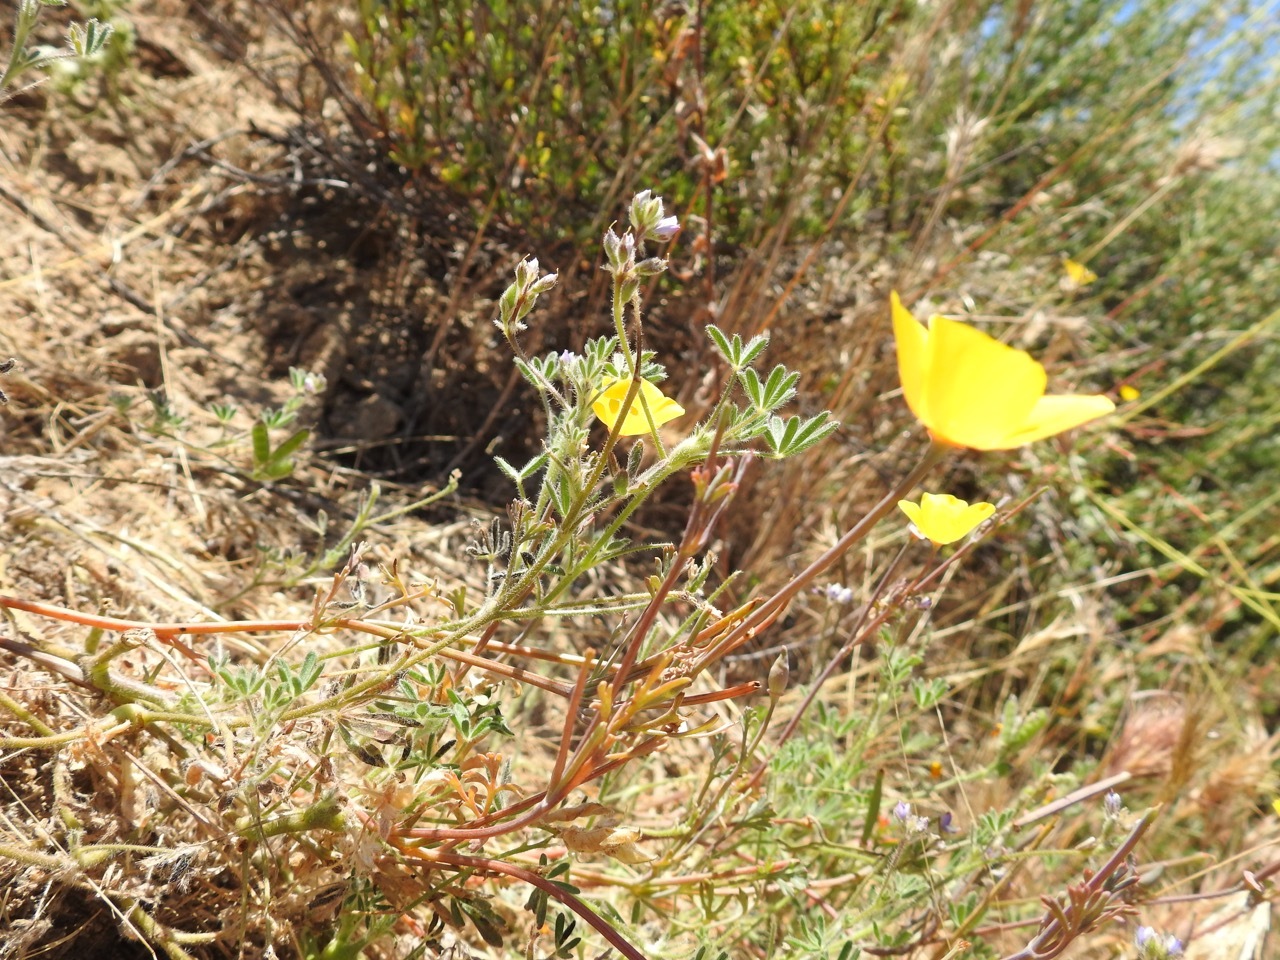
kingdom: Plantae
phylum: Tracheophyta
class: Magnoliopsida
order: Ranunculales
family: Papaveraceae
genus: Eschscholzia
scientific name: Eschscholzia californica
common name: California poppy
